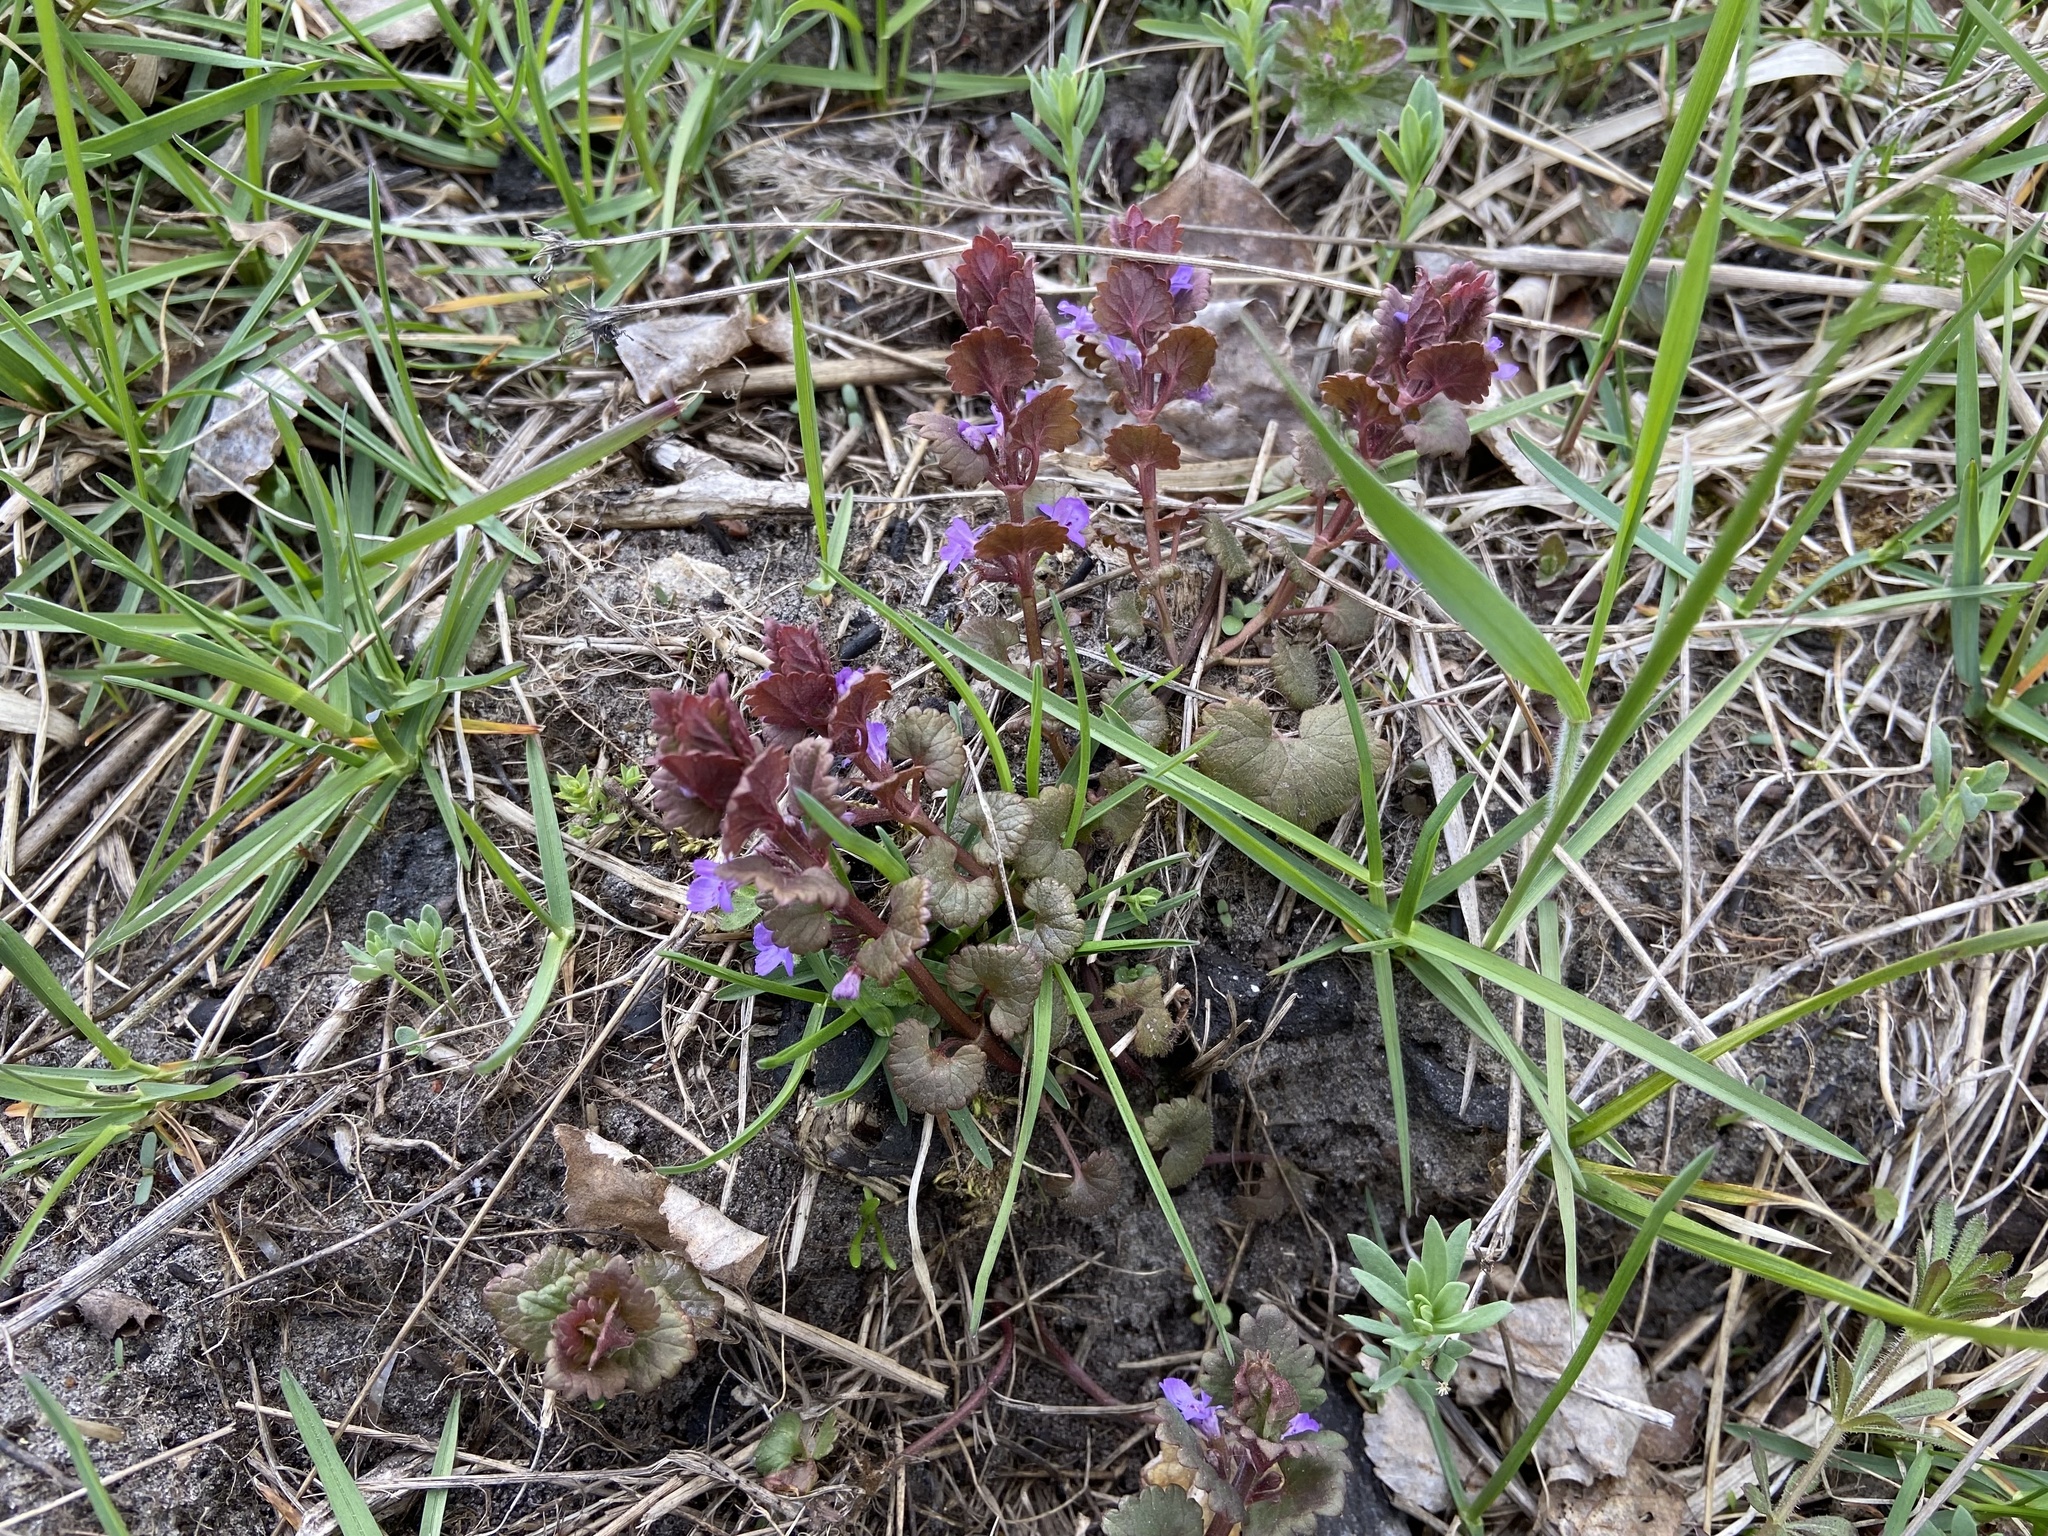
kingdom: Plantae
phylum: Tracheophyta
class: Magnoliopsida
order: Lamiales
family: Lamiaceae
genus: Glechoma
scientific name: Glechoma hederacea
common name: Ground ivy
